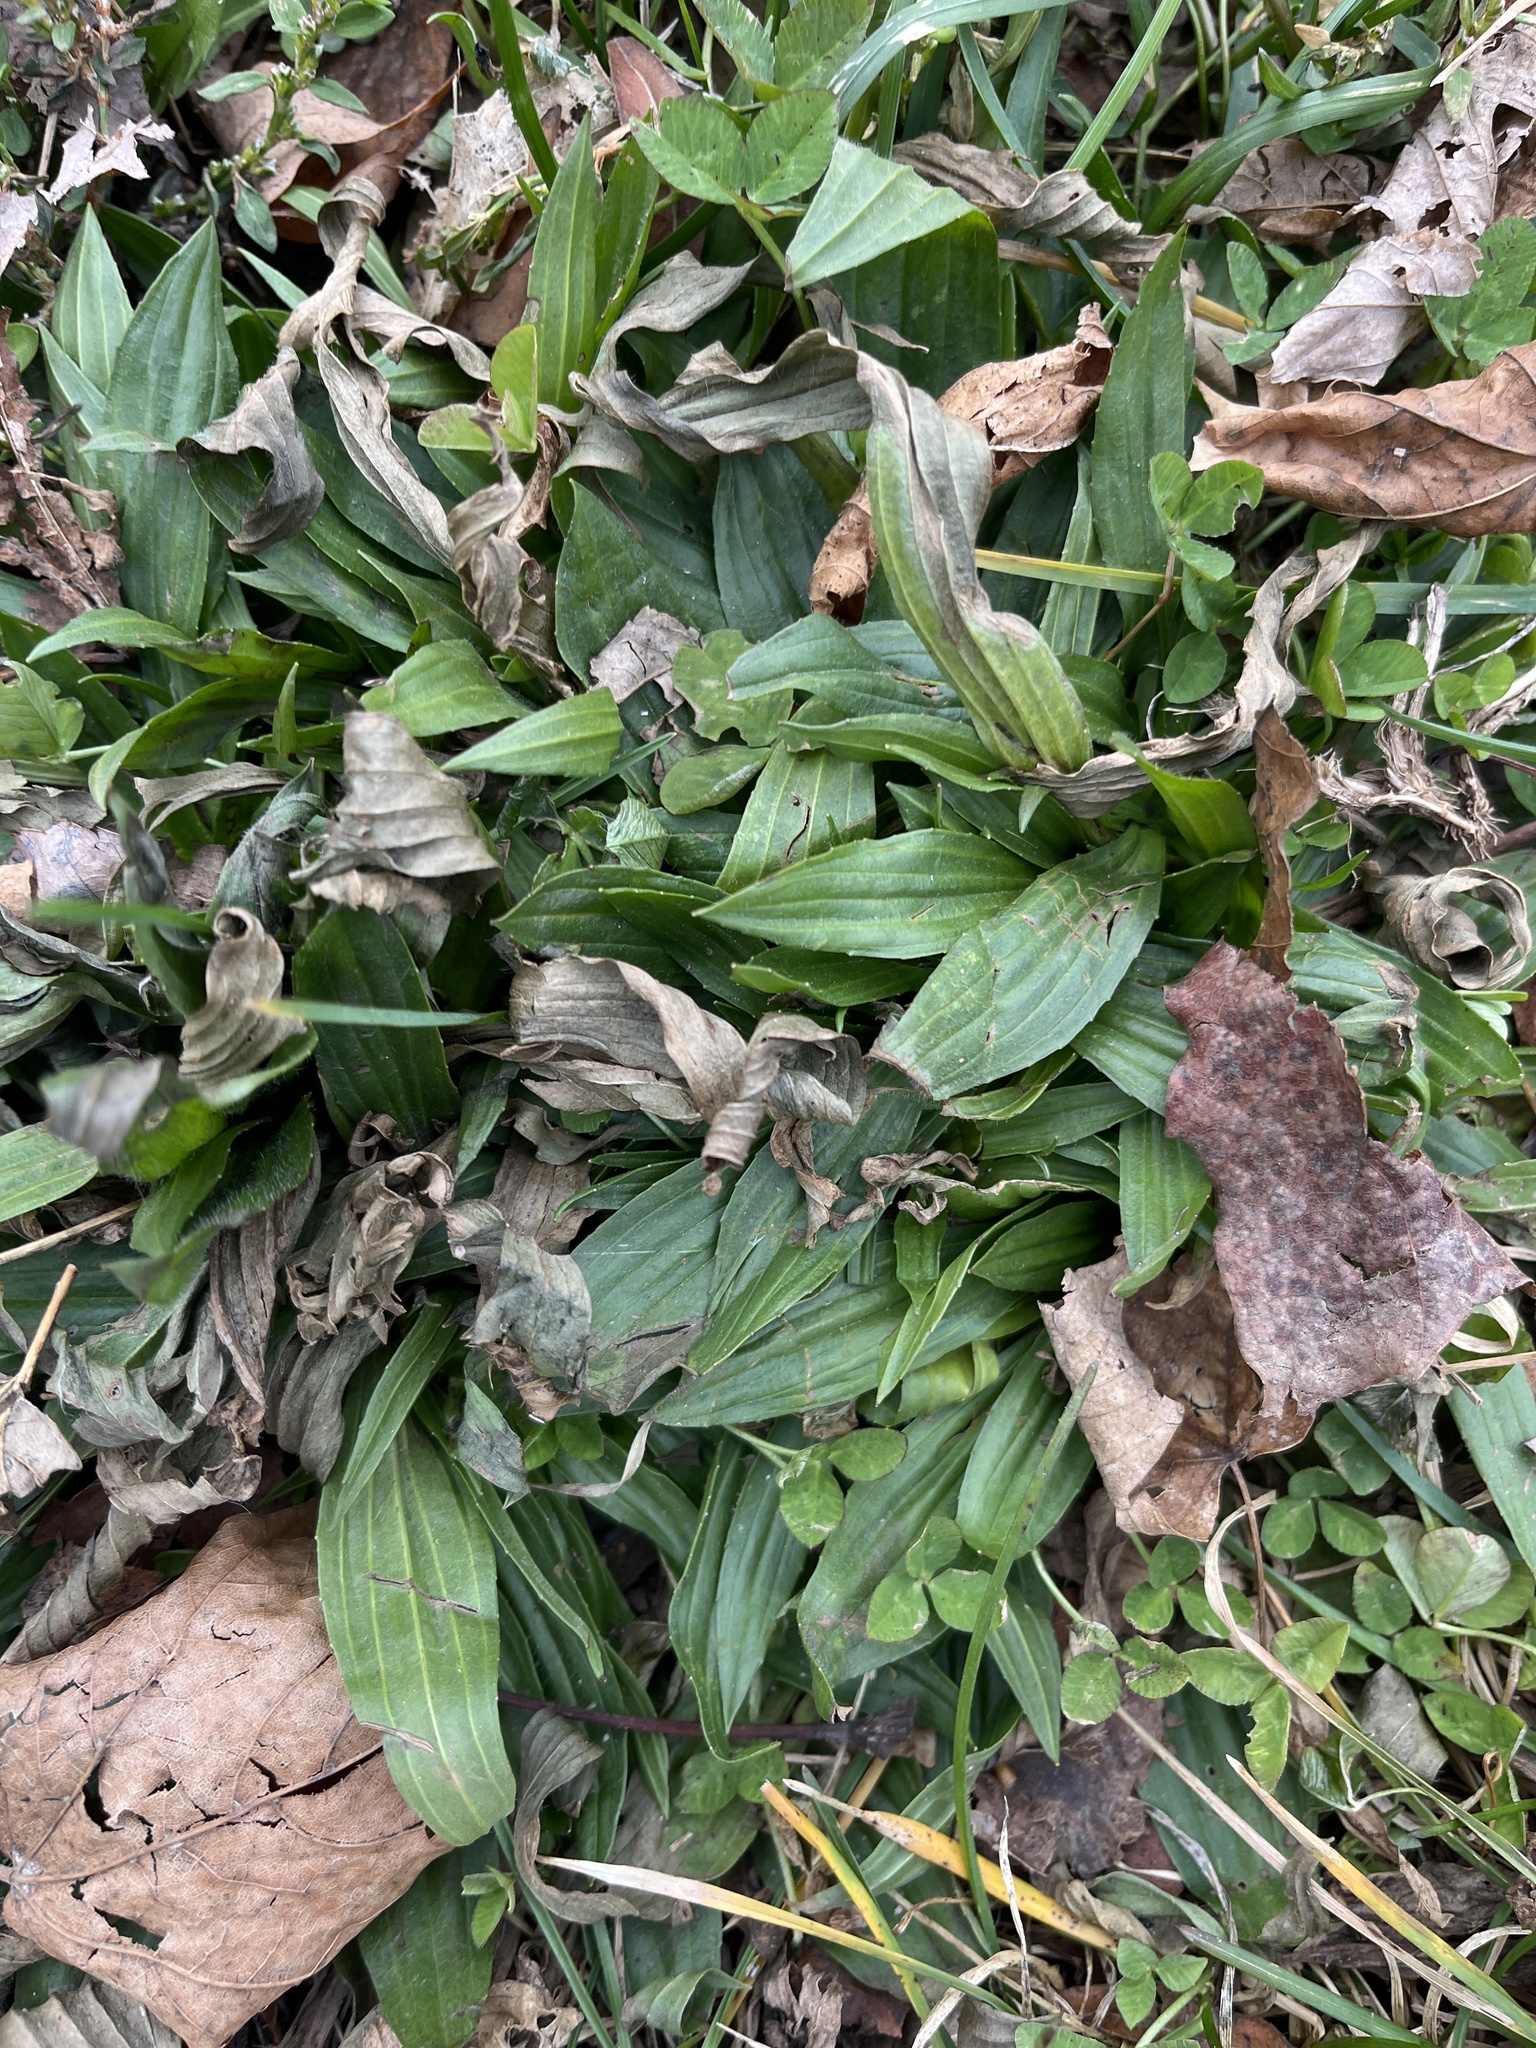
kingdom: Plantae
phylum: Tracheophyta
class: Magnoliopsida
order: Lamiales
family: Plantaginaceae
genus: Plantago
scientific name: Plantago lanceolata
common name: Ribwort plantain
